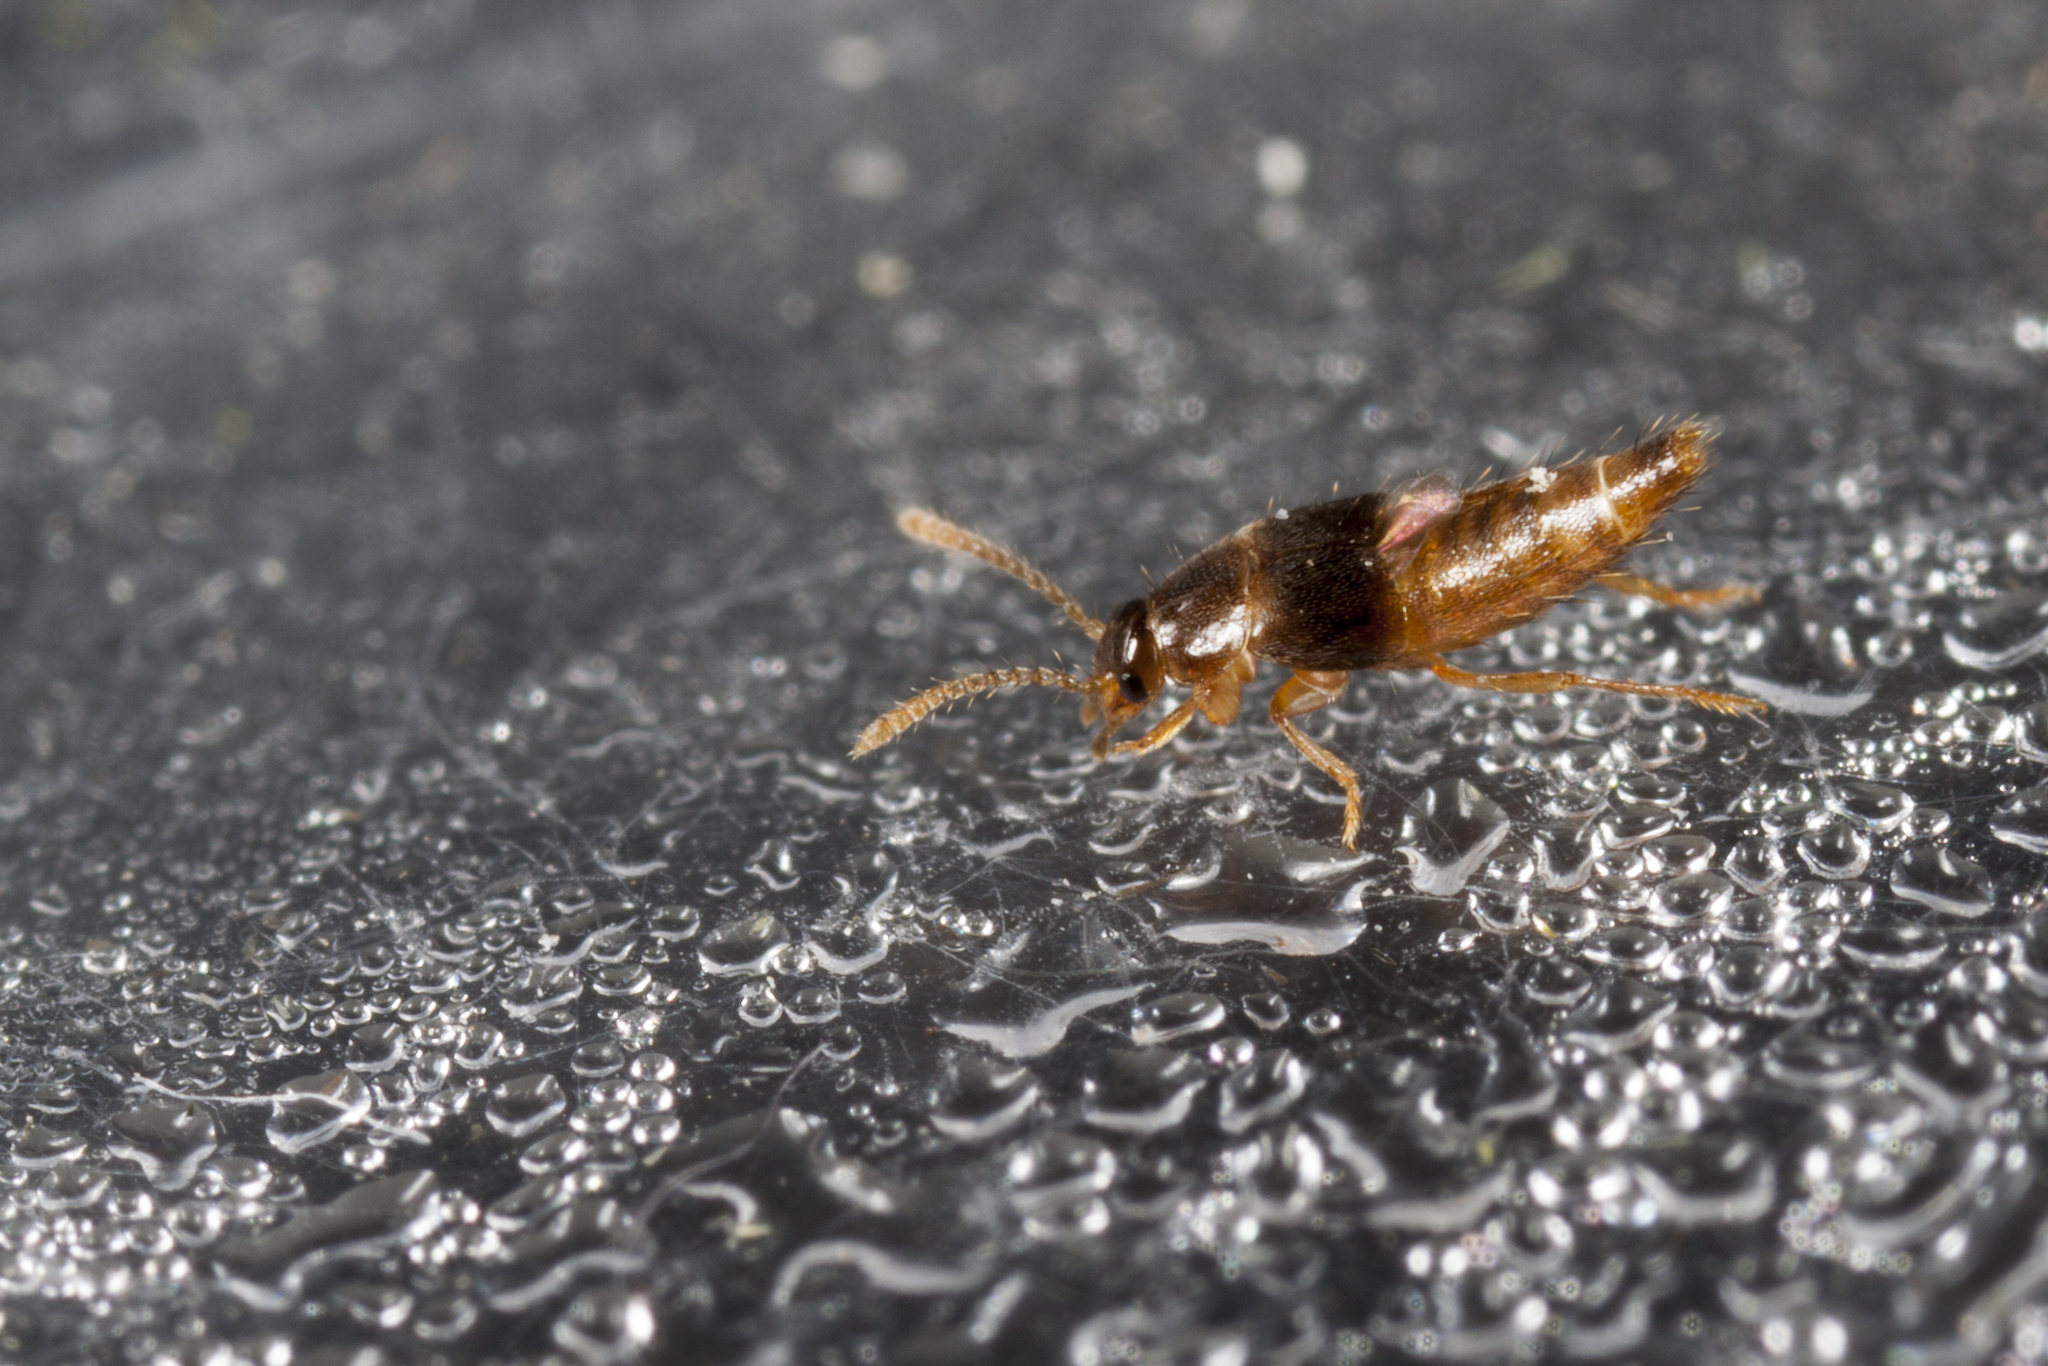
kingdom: Animalia
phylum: Arthropoda
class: Insecta
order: Coleoptera
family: Staphylinidae
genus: Japanophilus
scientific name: Japanophilus hojoi
